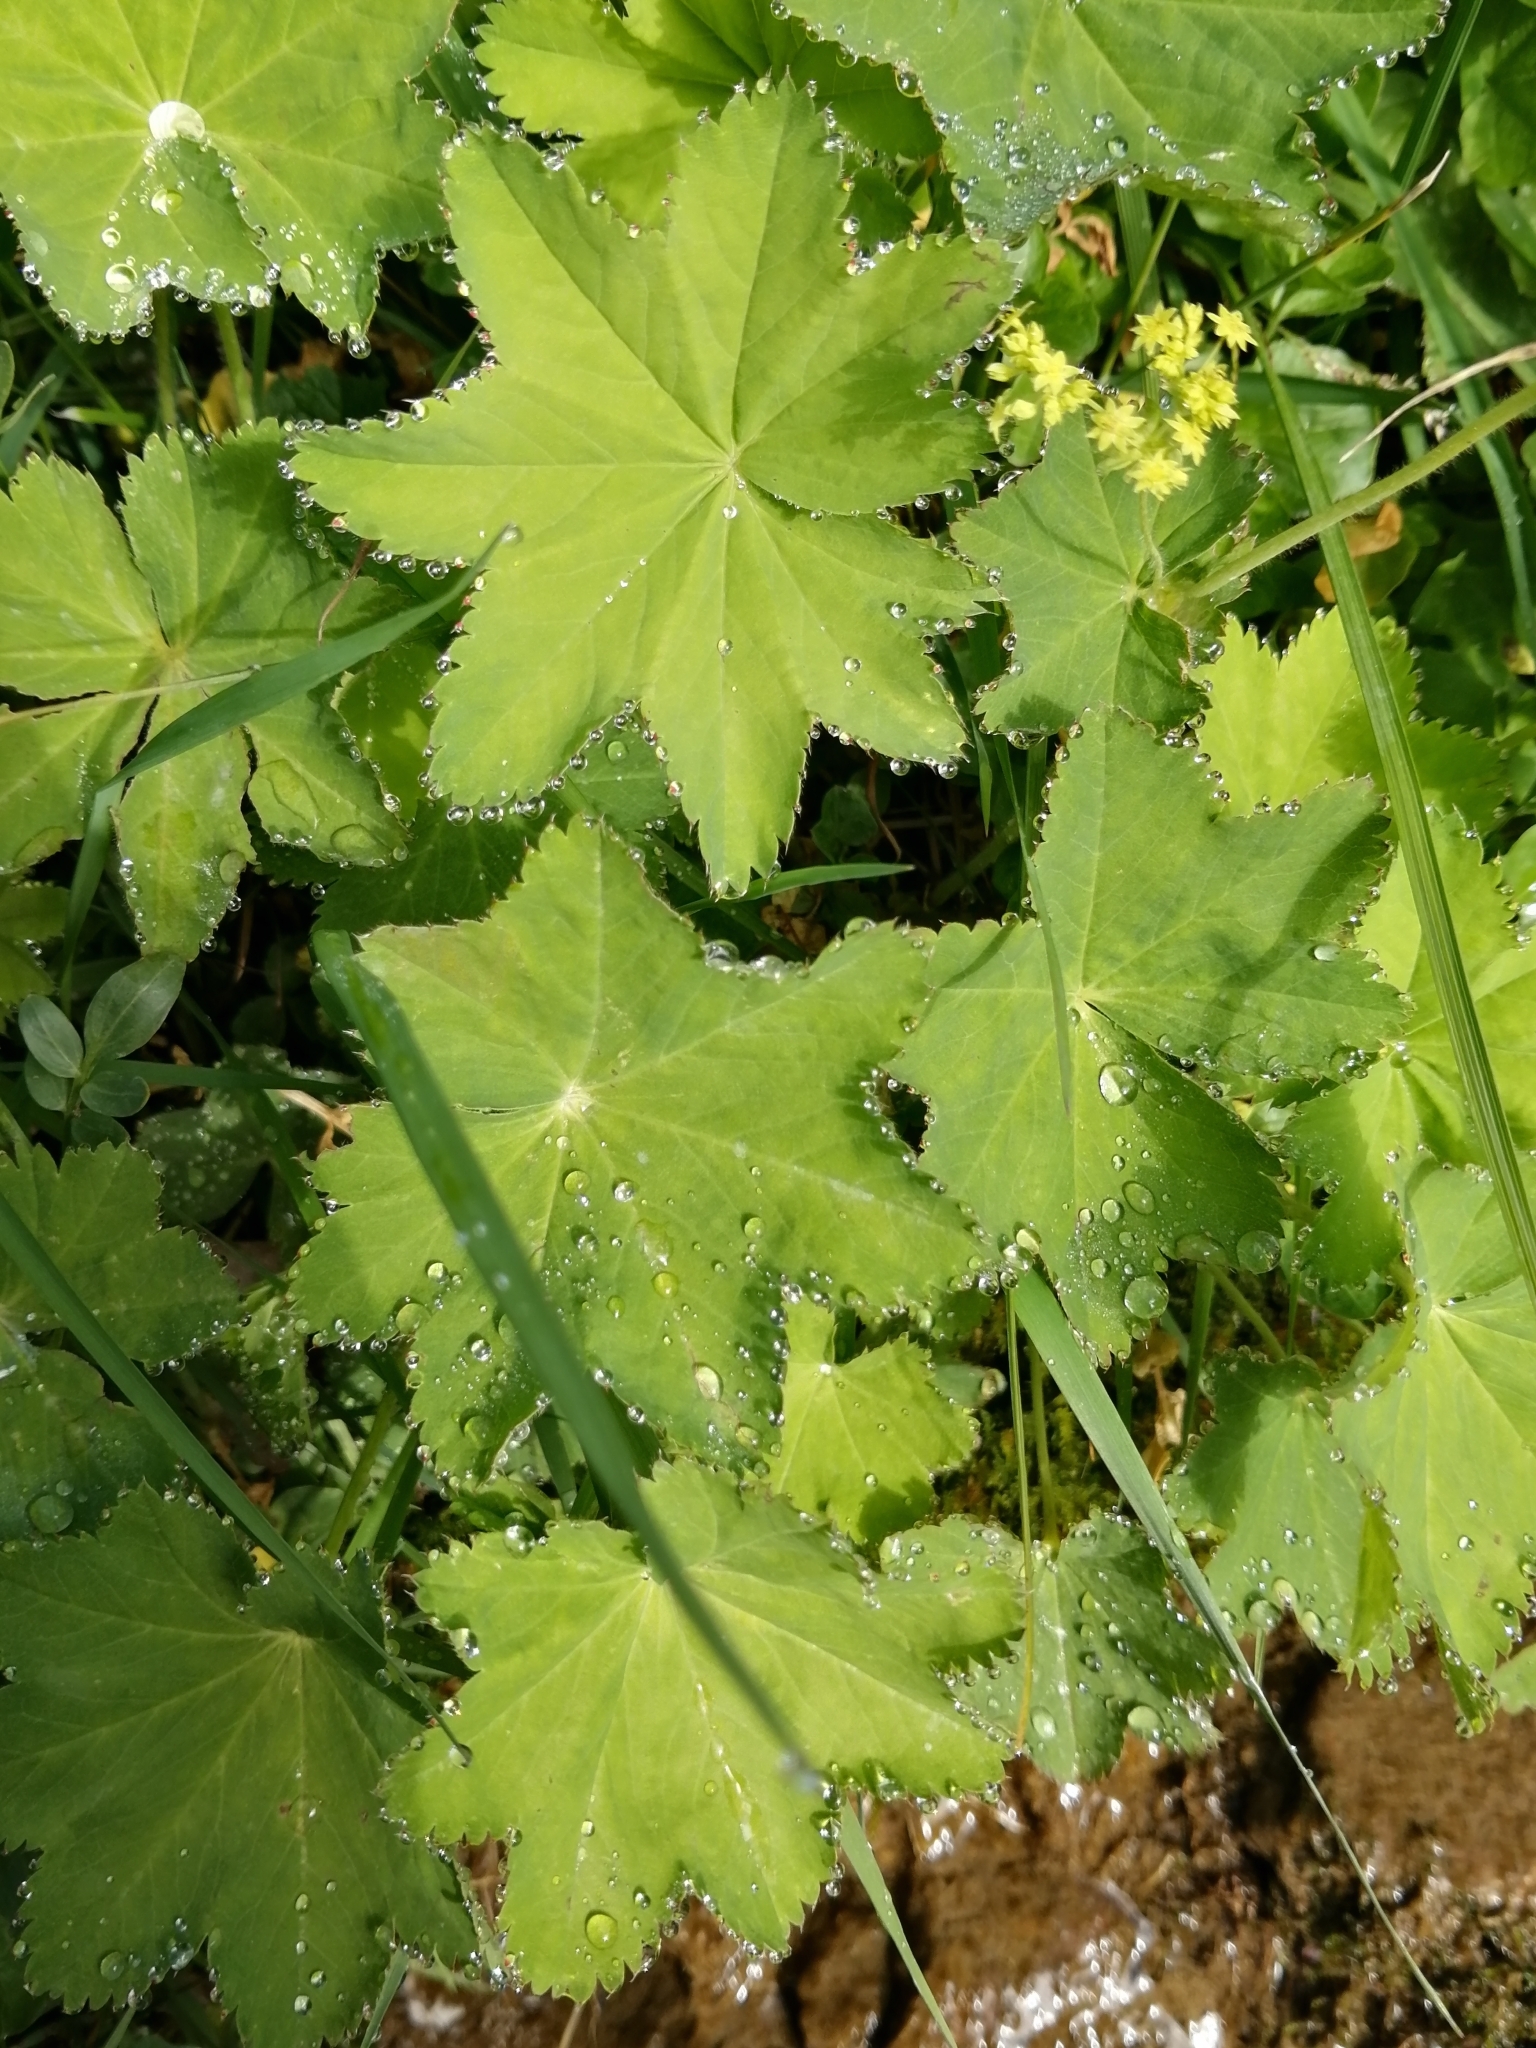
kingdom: Plantae
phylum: Tracheophyta
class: Magnoliopsida
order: Rosales
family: Rosaceae
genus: Alchemilla
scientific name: Alchemilla
